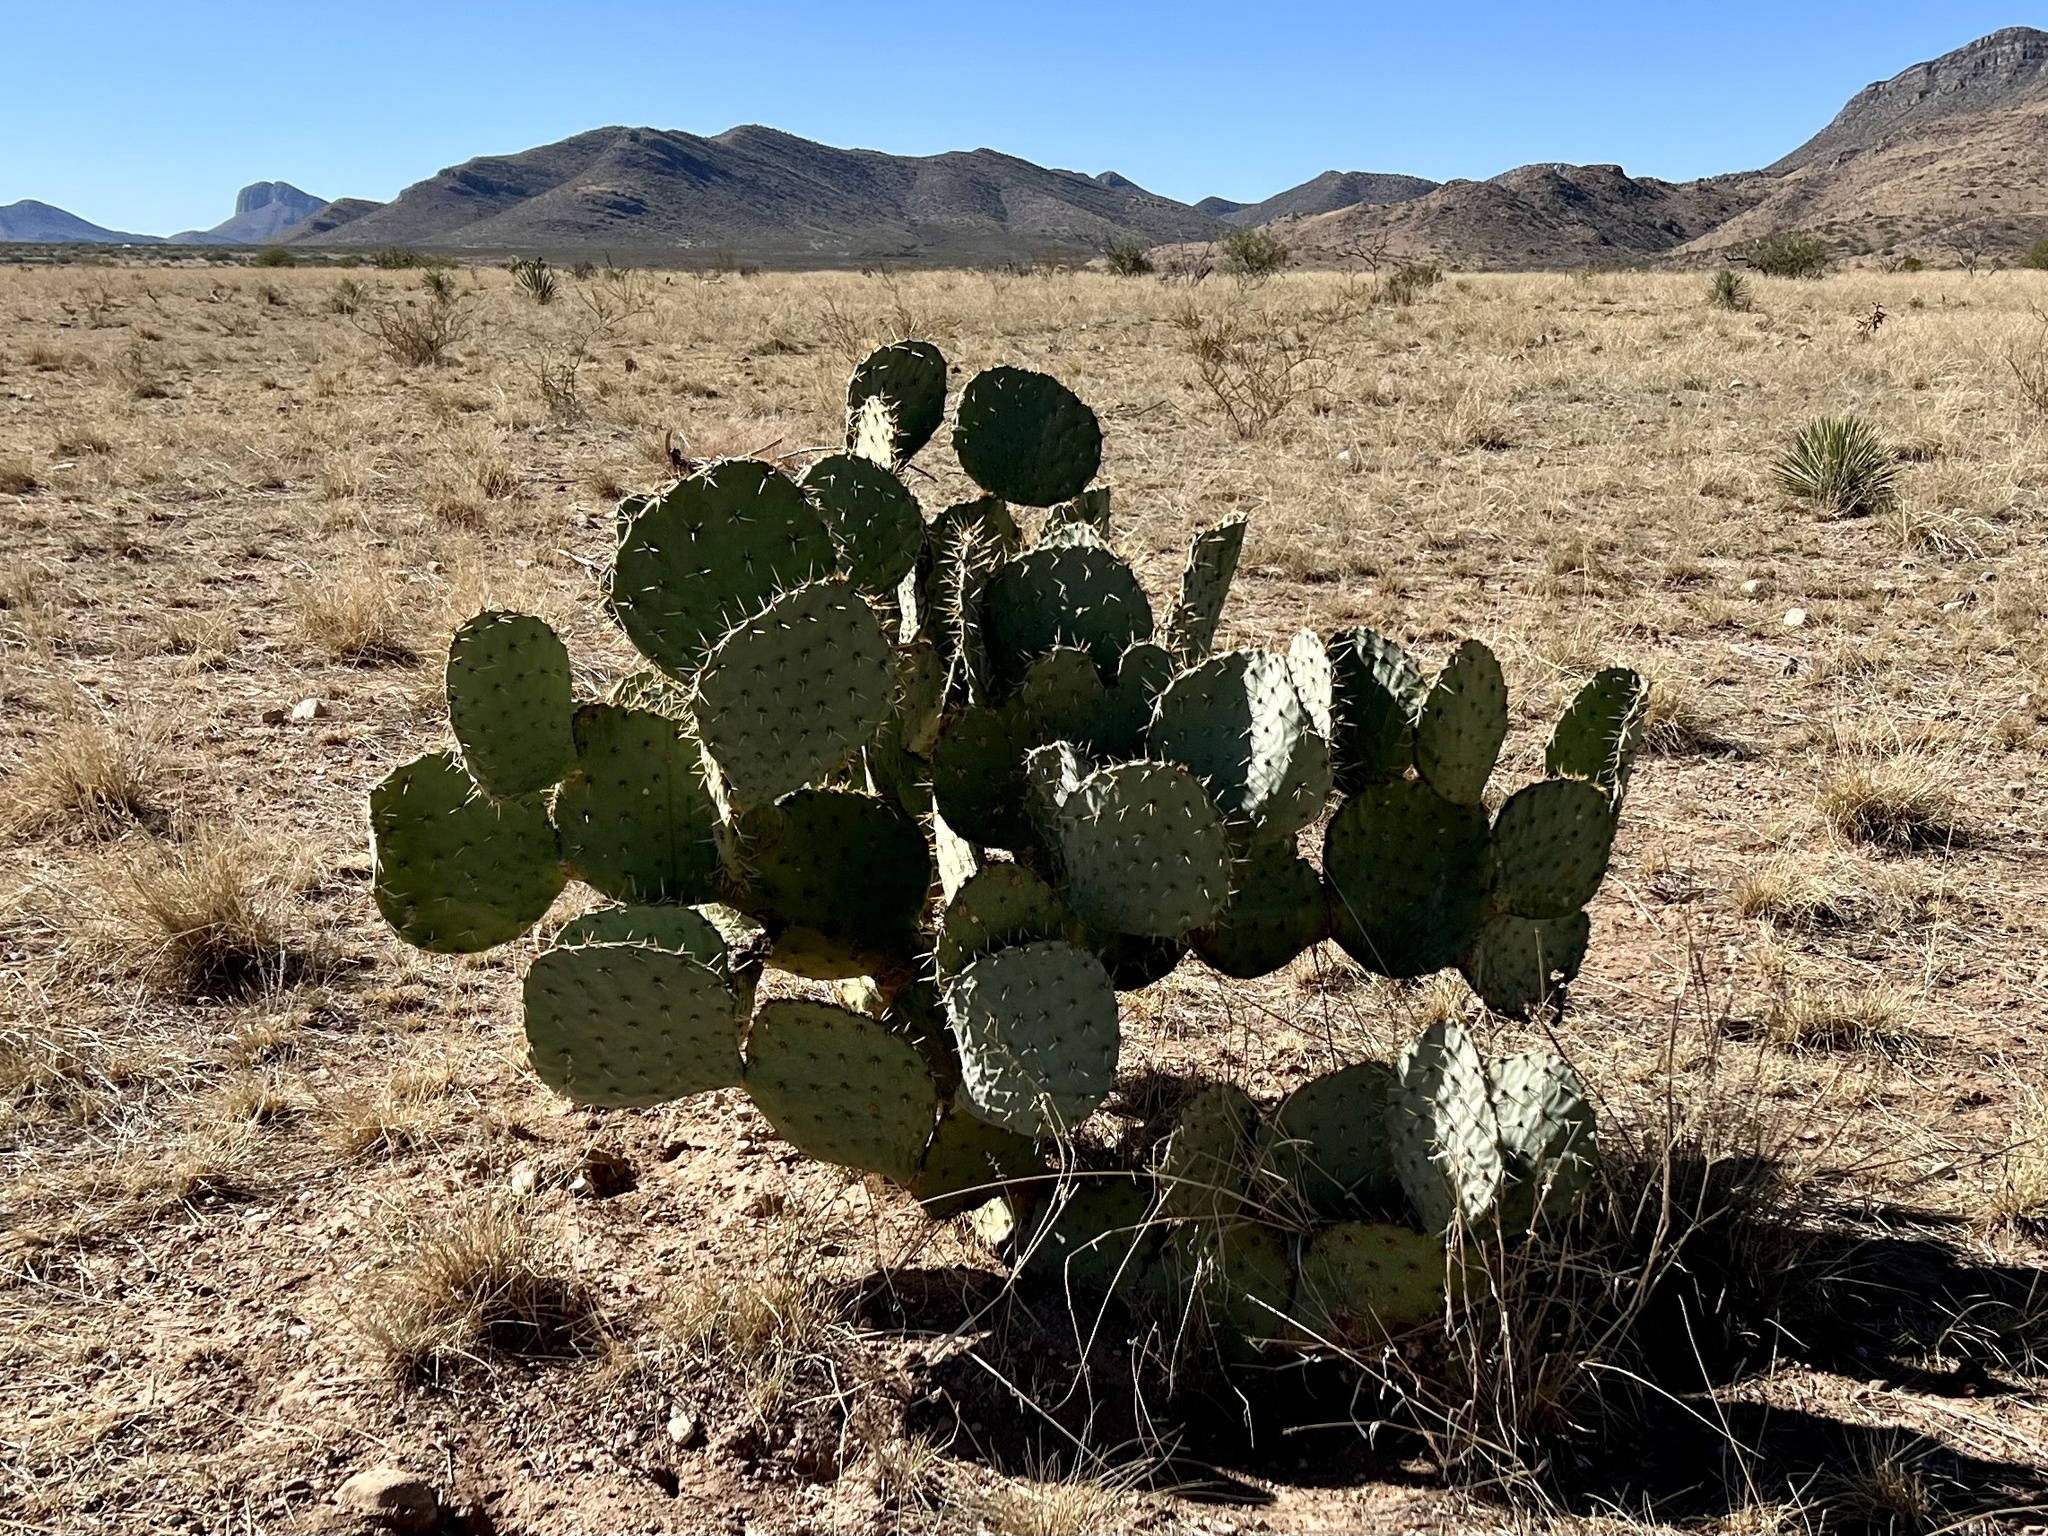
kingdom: Plantae
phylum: Tracheophyta
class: Magnoliopsida
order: Caryophyllales
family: Cactaceae
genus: Opuntia
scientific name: Opuntia engelmannii
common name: Cactus-apple
